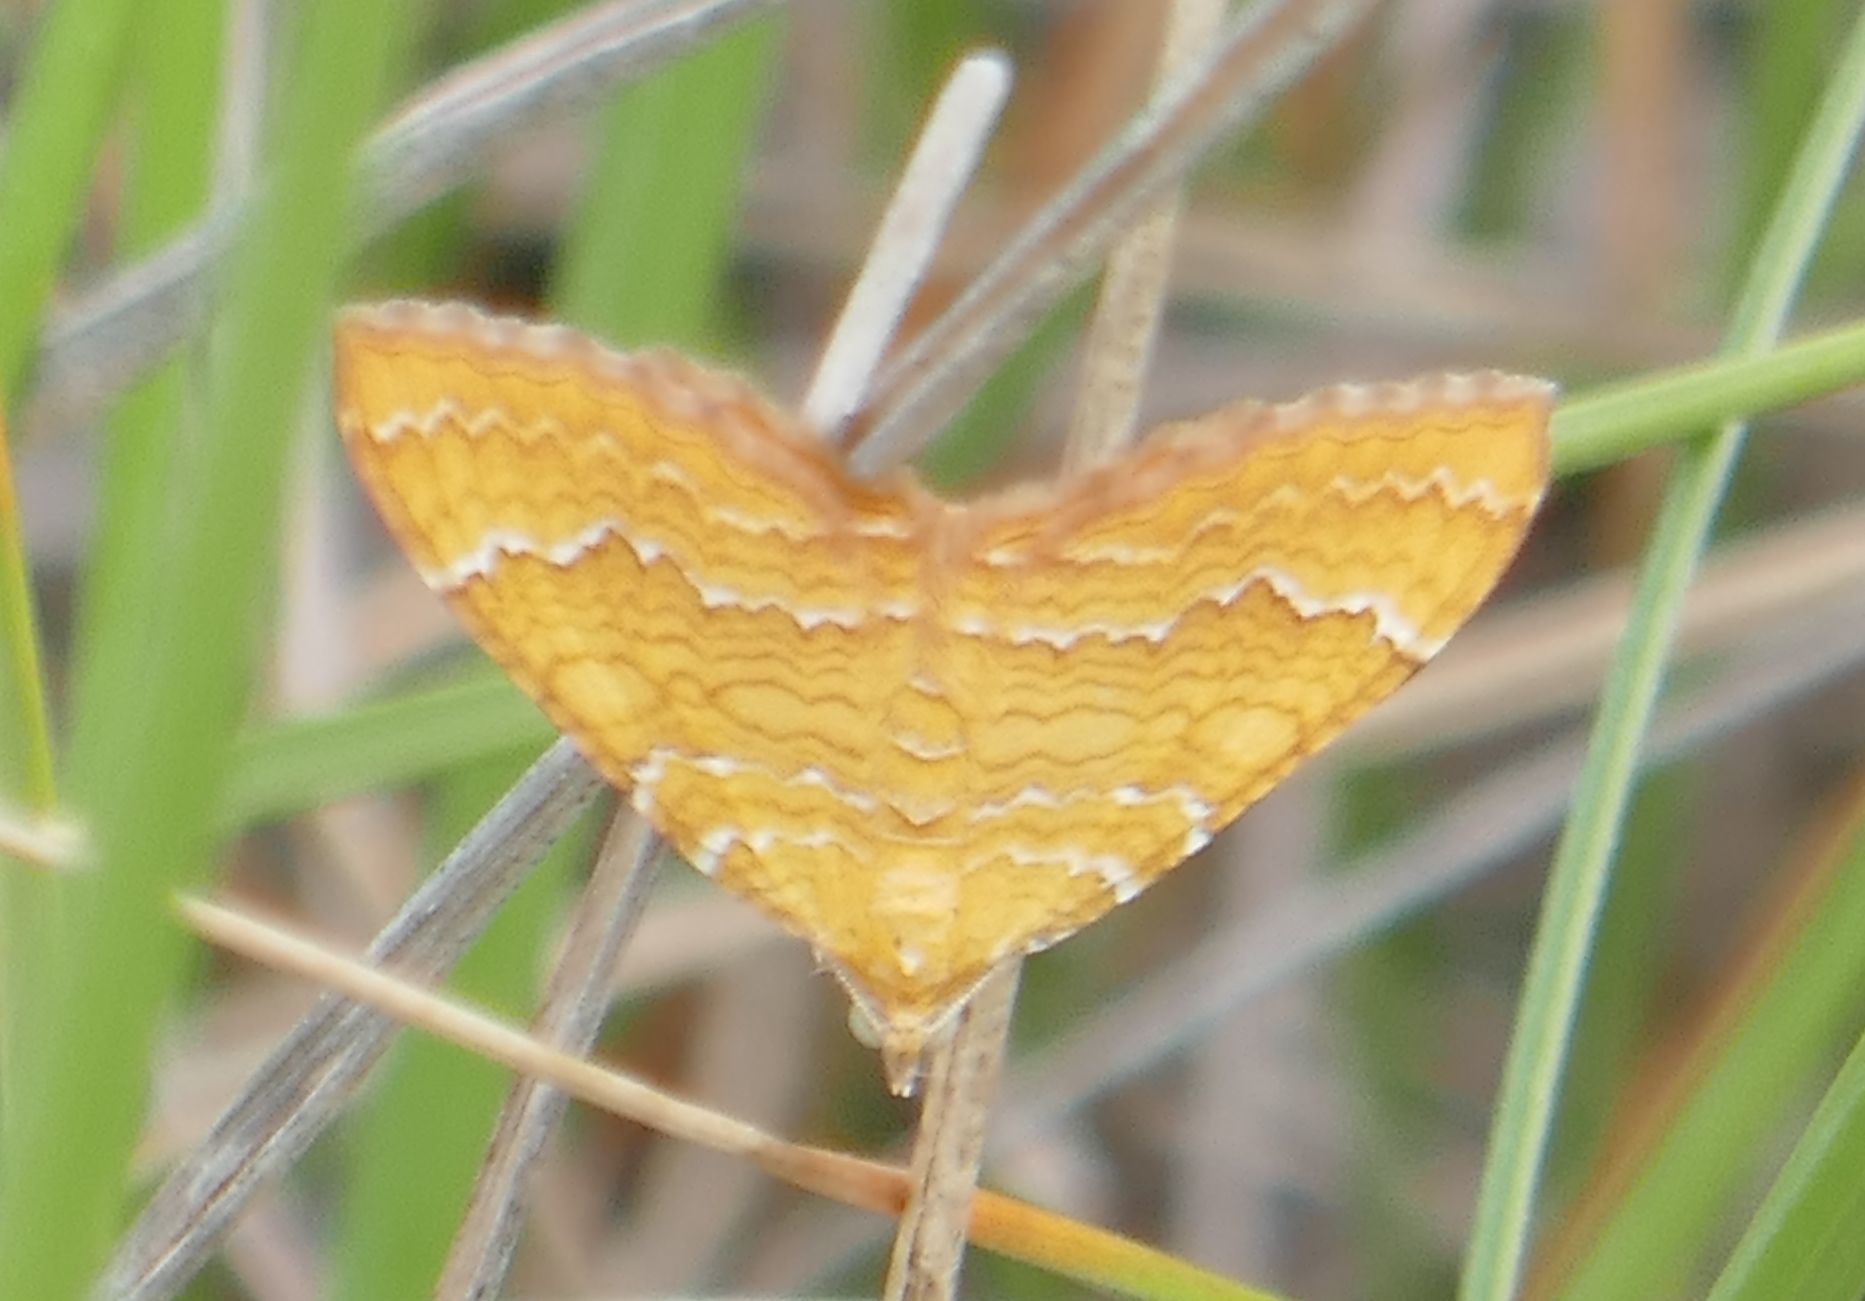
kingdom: Animalia
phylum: Arthropoda
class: Insecta
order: Lepidoptera
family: Geometridae
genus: Camptogramma
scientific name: Camptogramma bilineata
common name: Yellow shell
